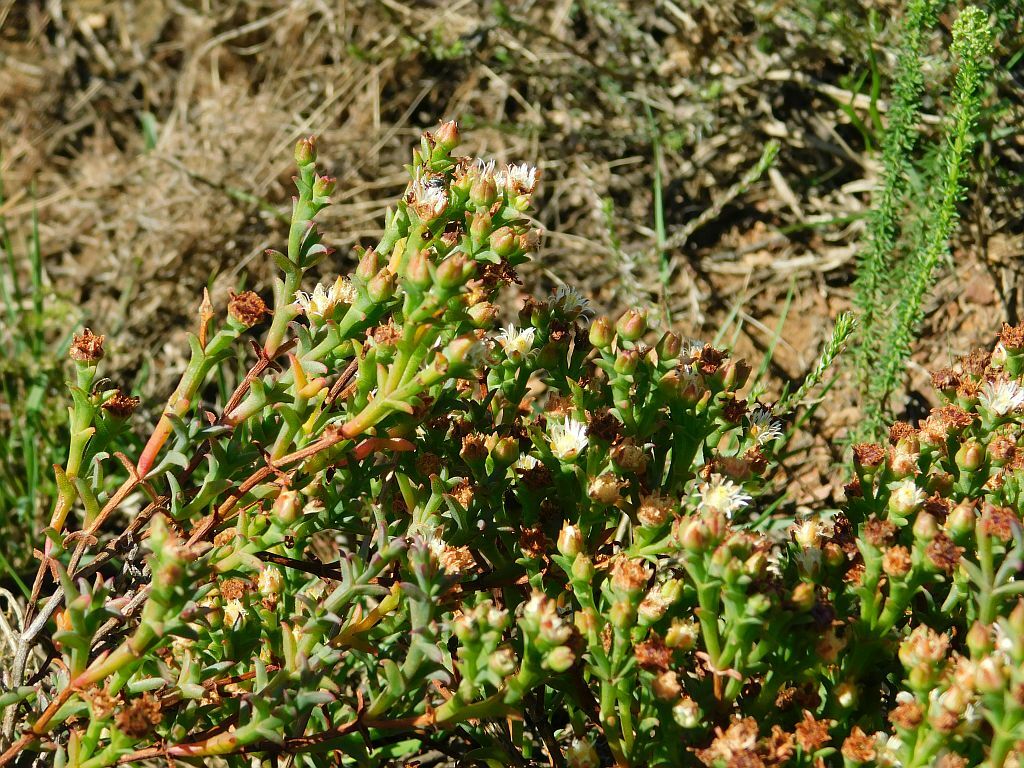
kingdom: Plantae
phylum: Tracheophyta
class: Magnoliopsida
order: Caryophyllales
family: Aizoaceae
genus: Ruschia
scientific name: Ruschia tenella
